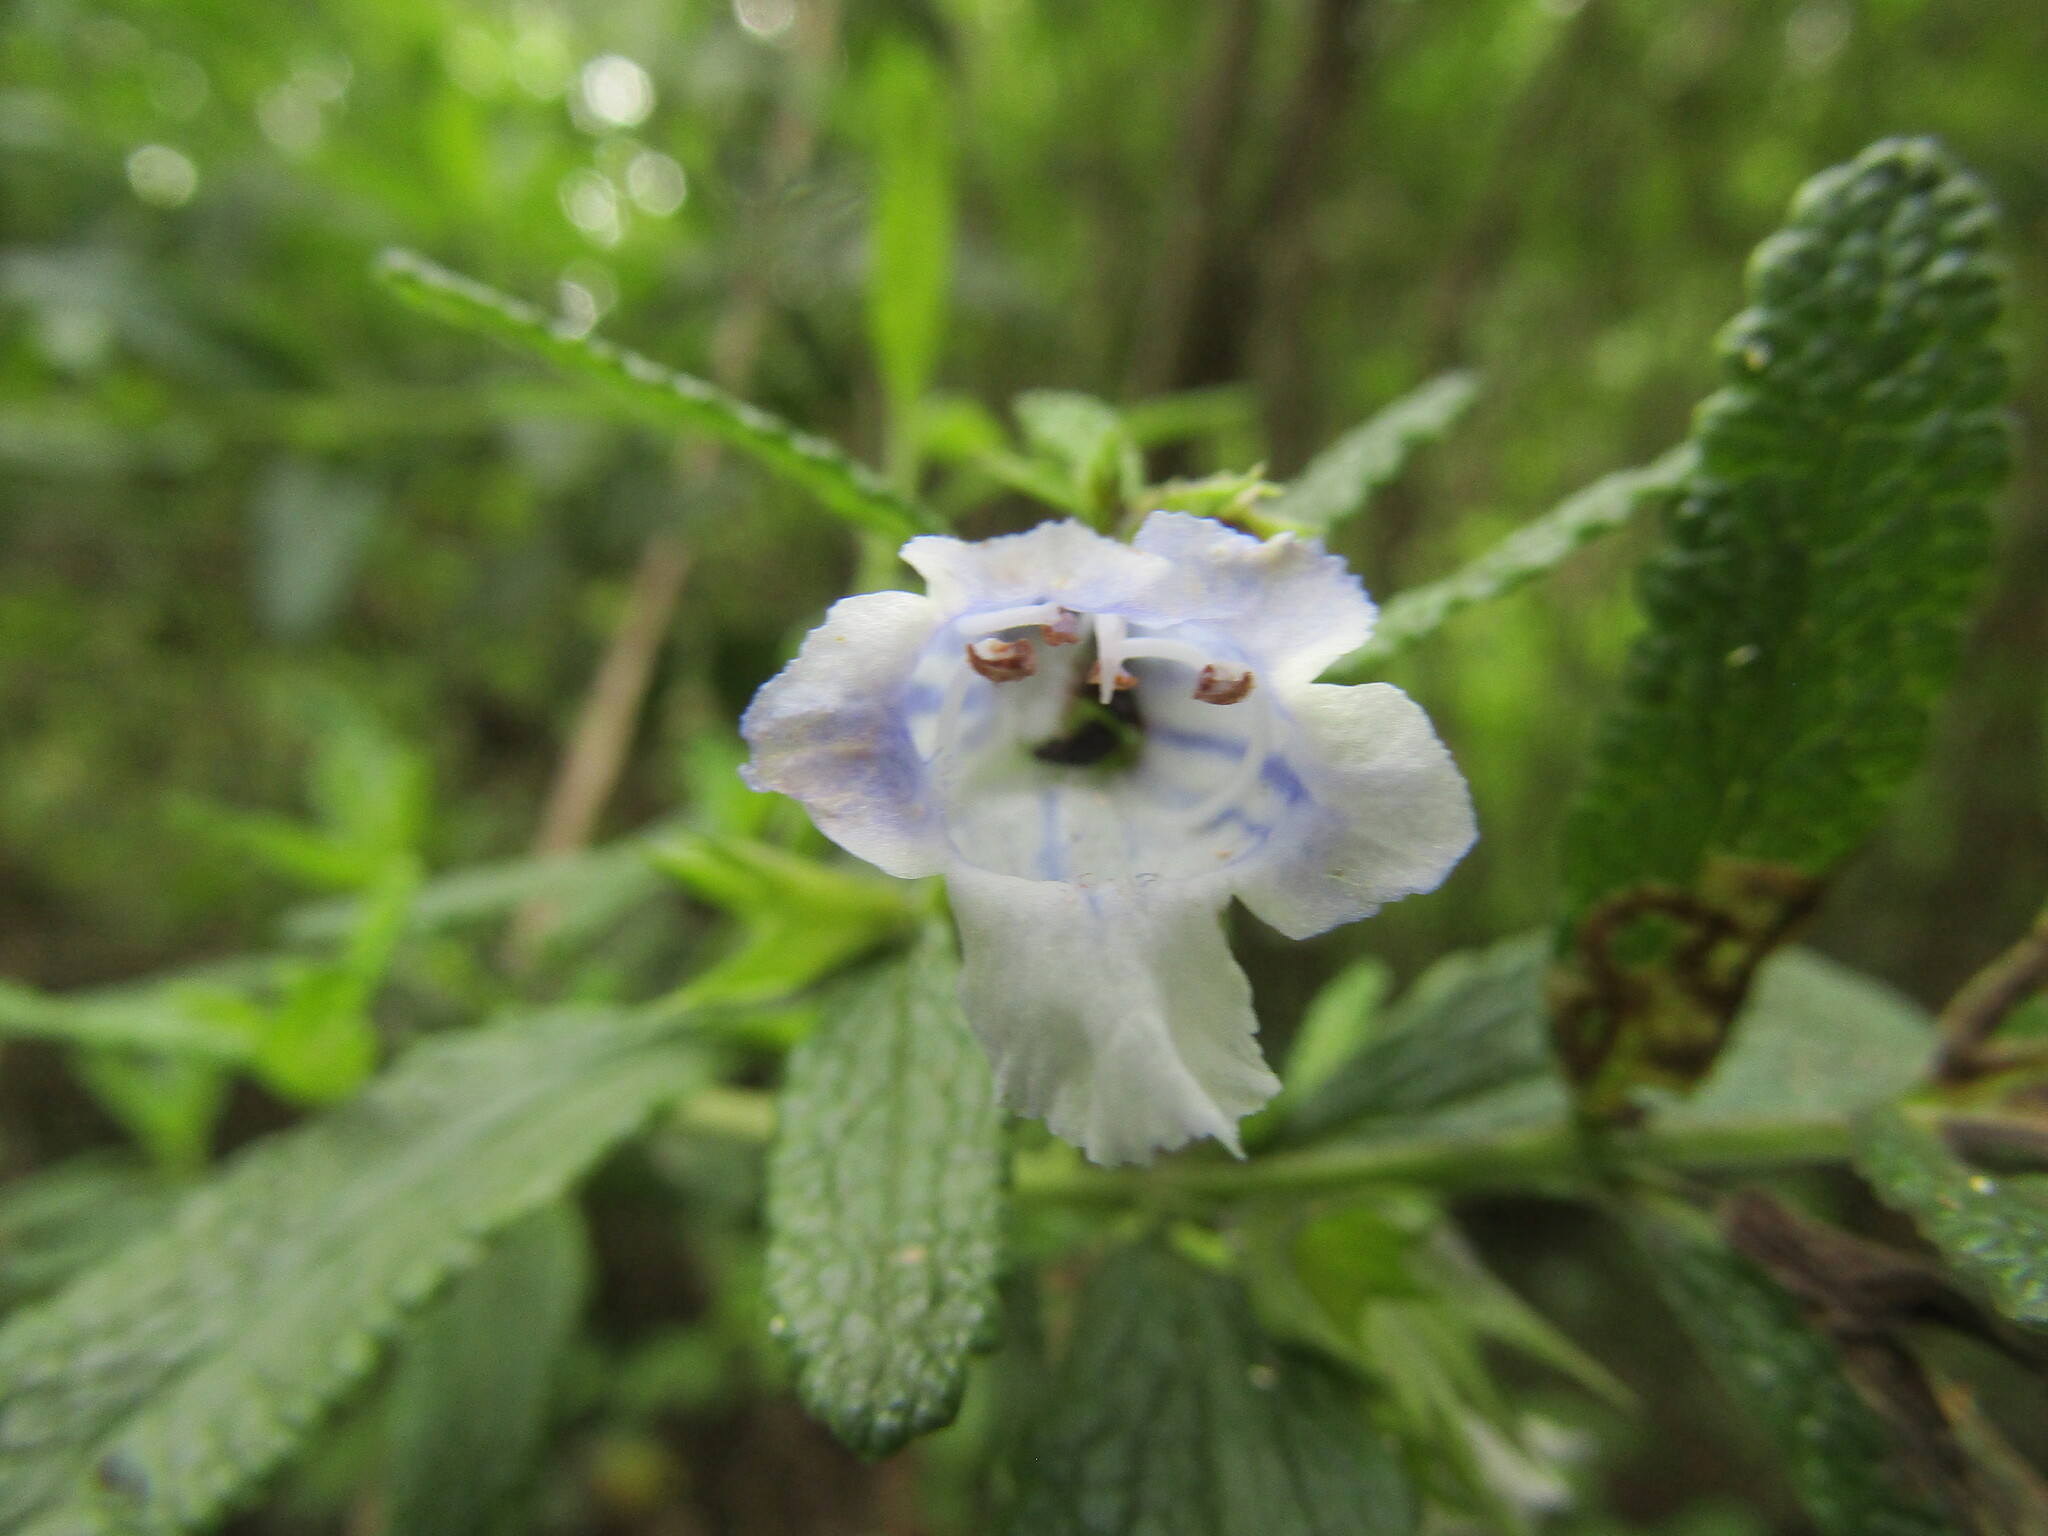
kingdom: Plantae
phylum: Tracheophyta
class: Magnoliopsida
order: Lamiales
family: Lamiaceae
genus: Lepechinia
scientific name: Lepechinia chilensis
